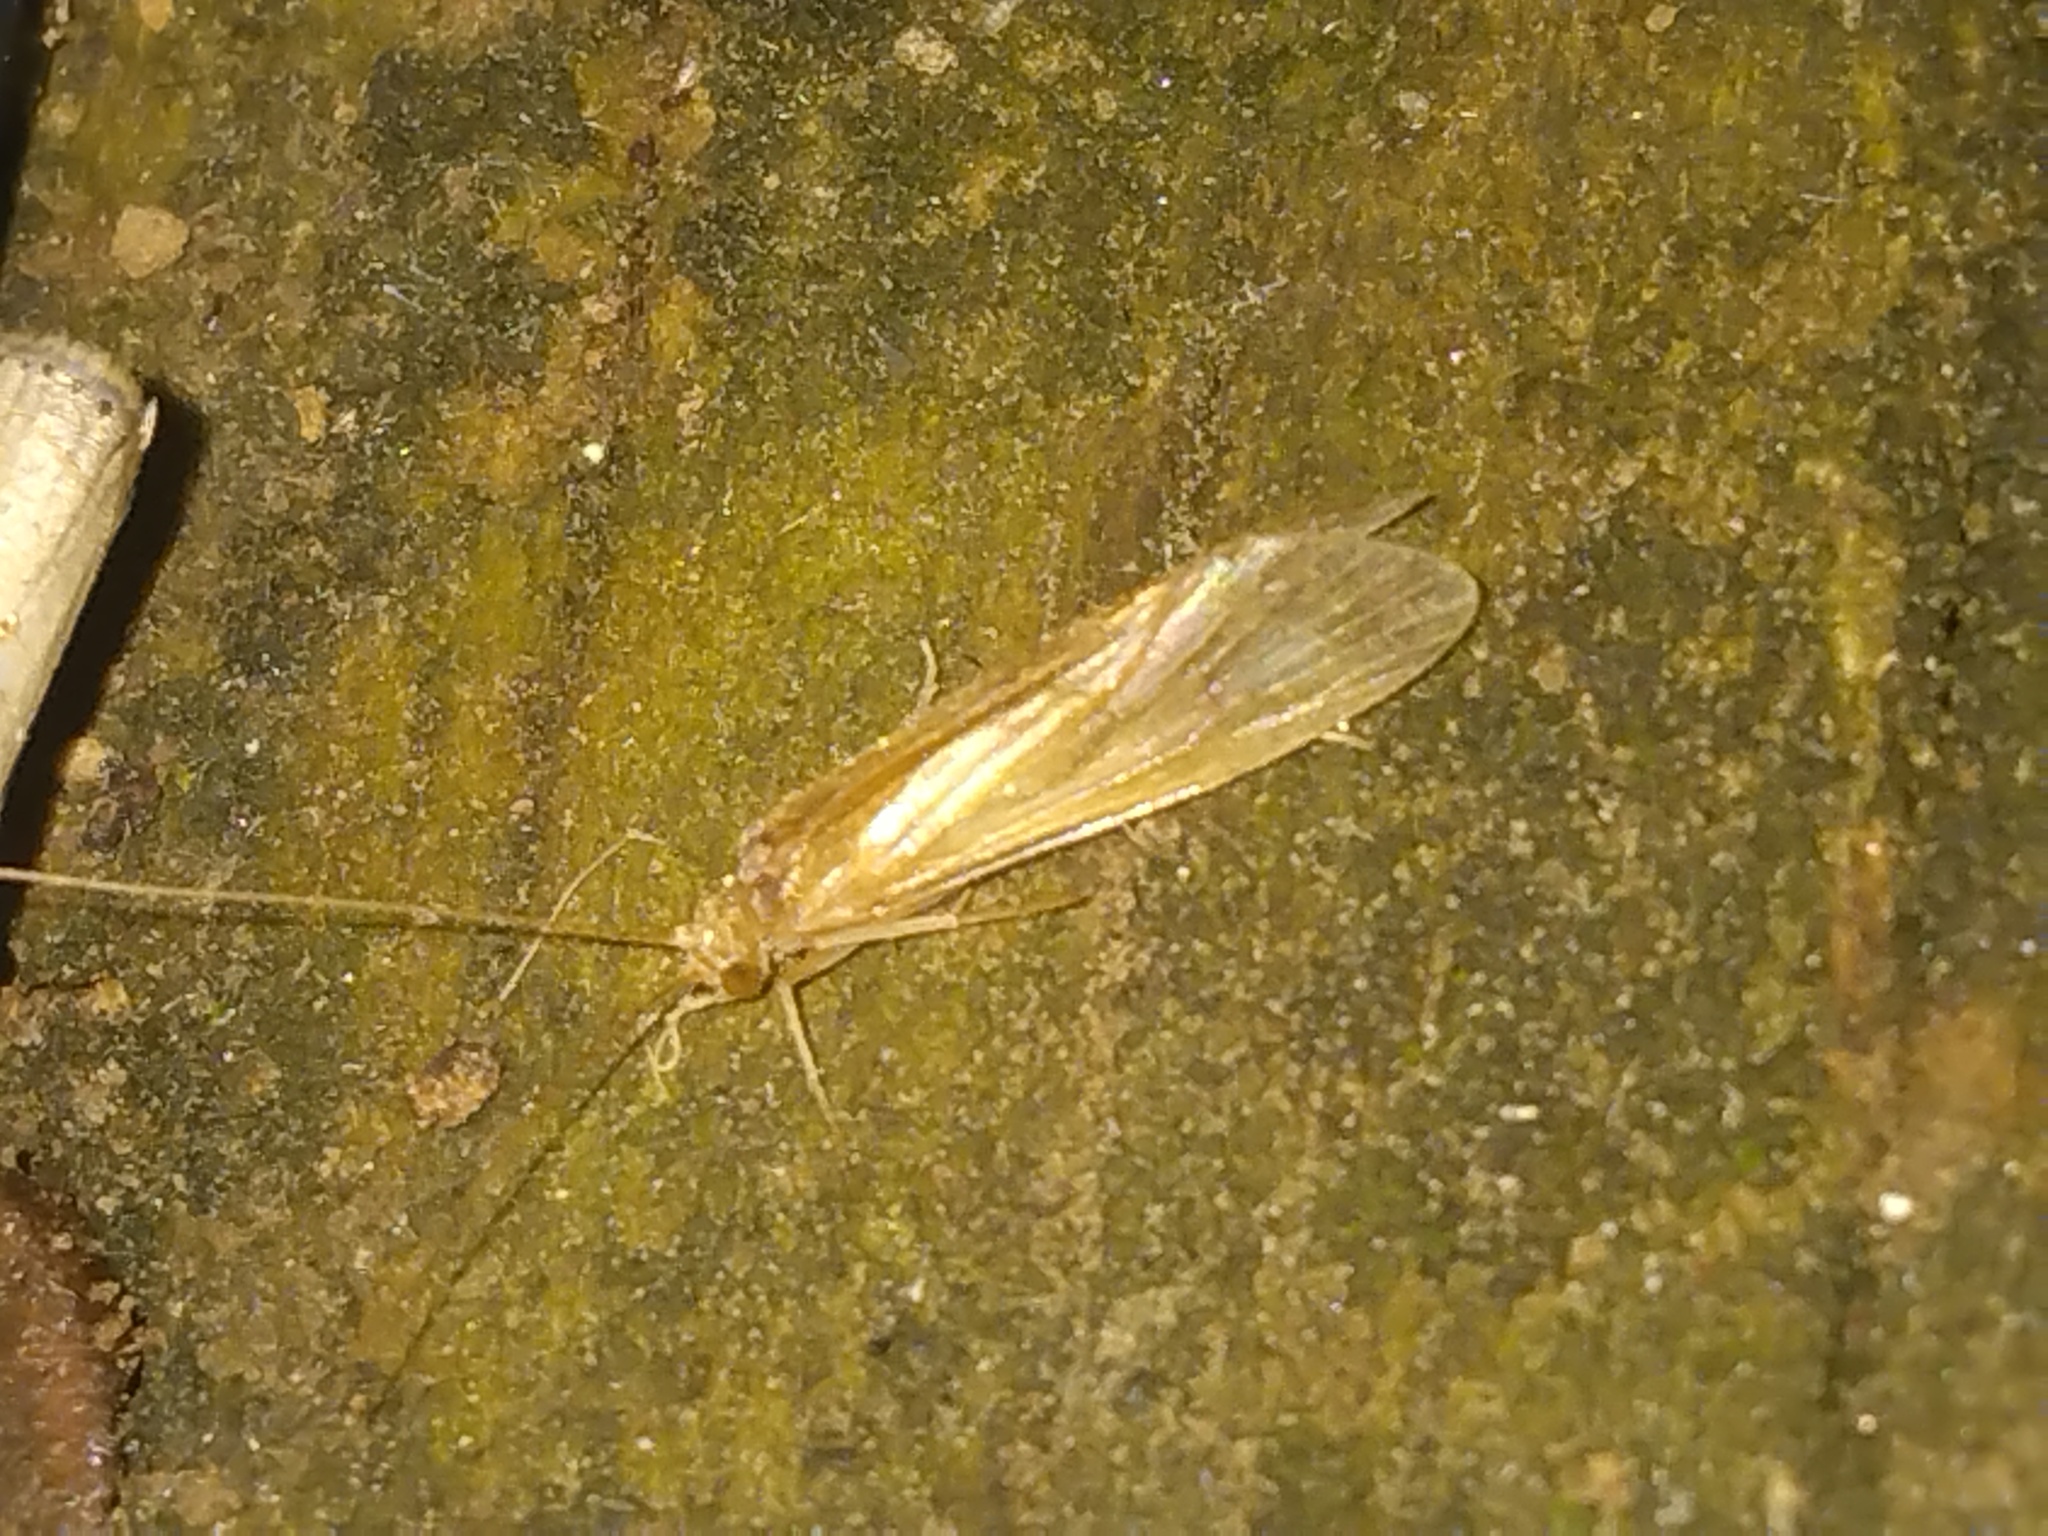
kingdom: Animalia
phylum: Arthropoda
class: Insecta
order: Trichoptera
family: Hydropsychidae
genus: Potamyia
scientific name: Potamyia flava
